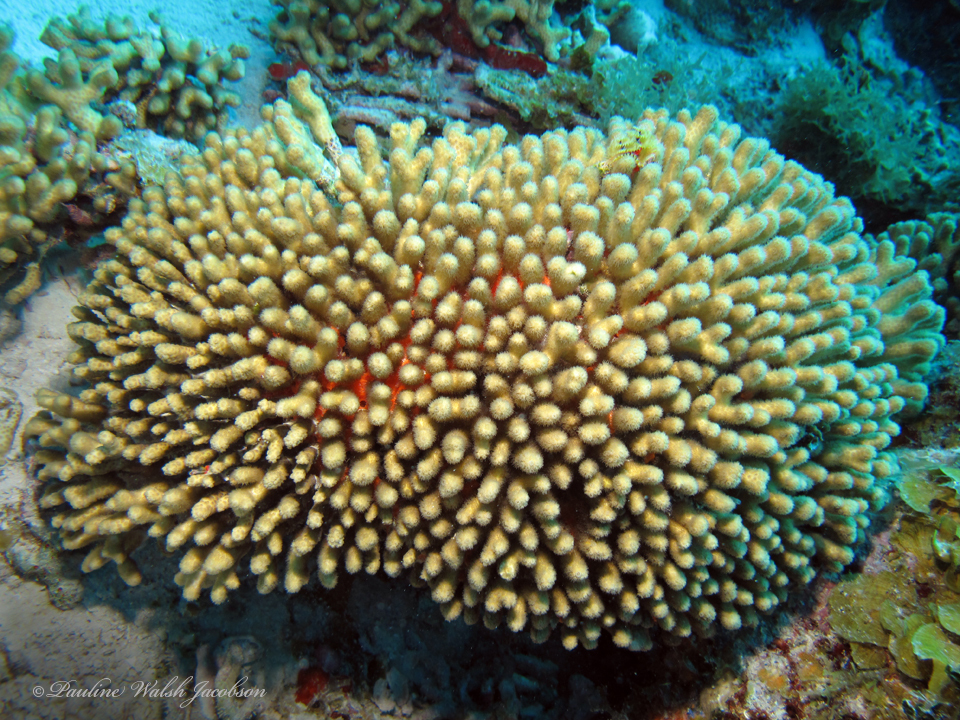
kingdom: Animalia
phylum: Cnidaria
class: Anthozoa
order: Scleractinia
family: Pocilloporidae
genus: Madracis
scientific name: Madracis auretenra
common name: Yellow pencil coral
